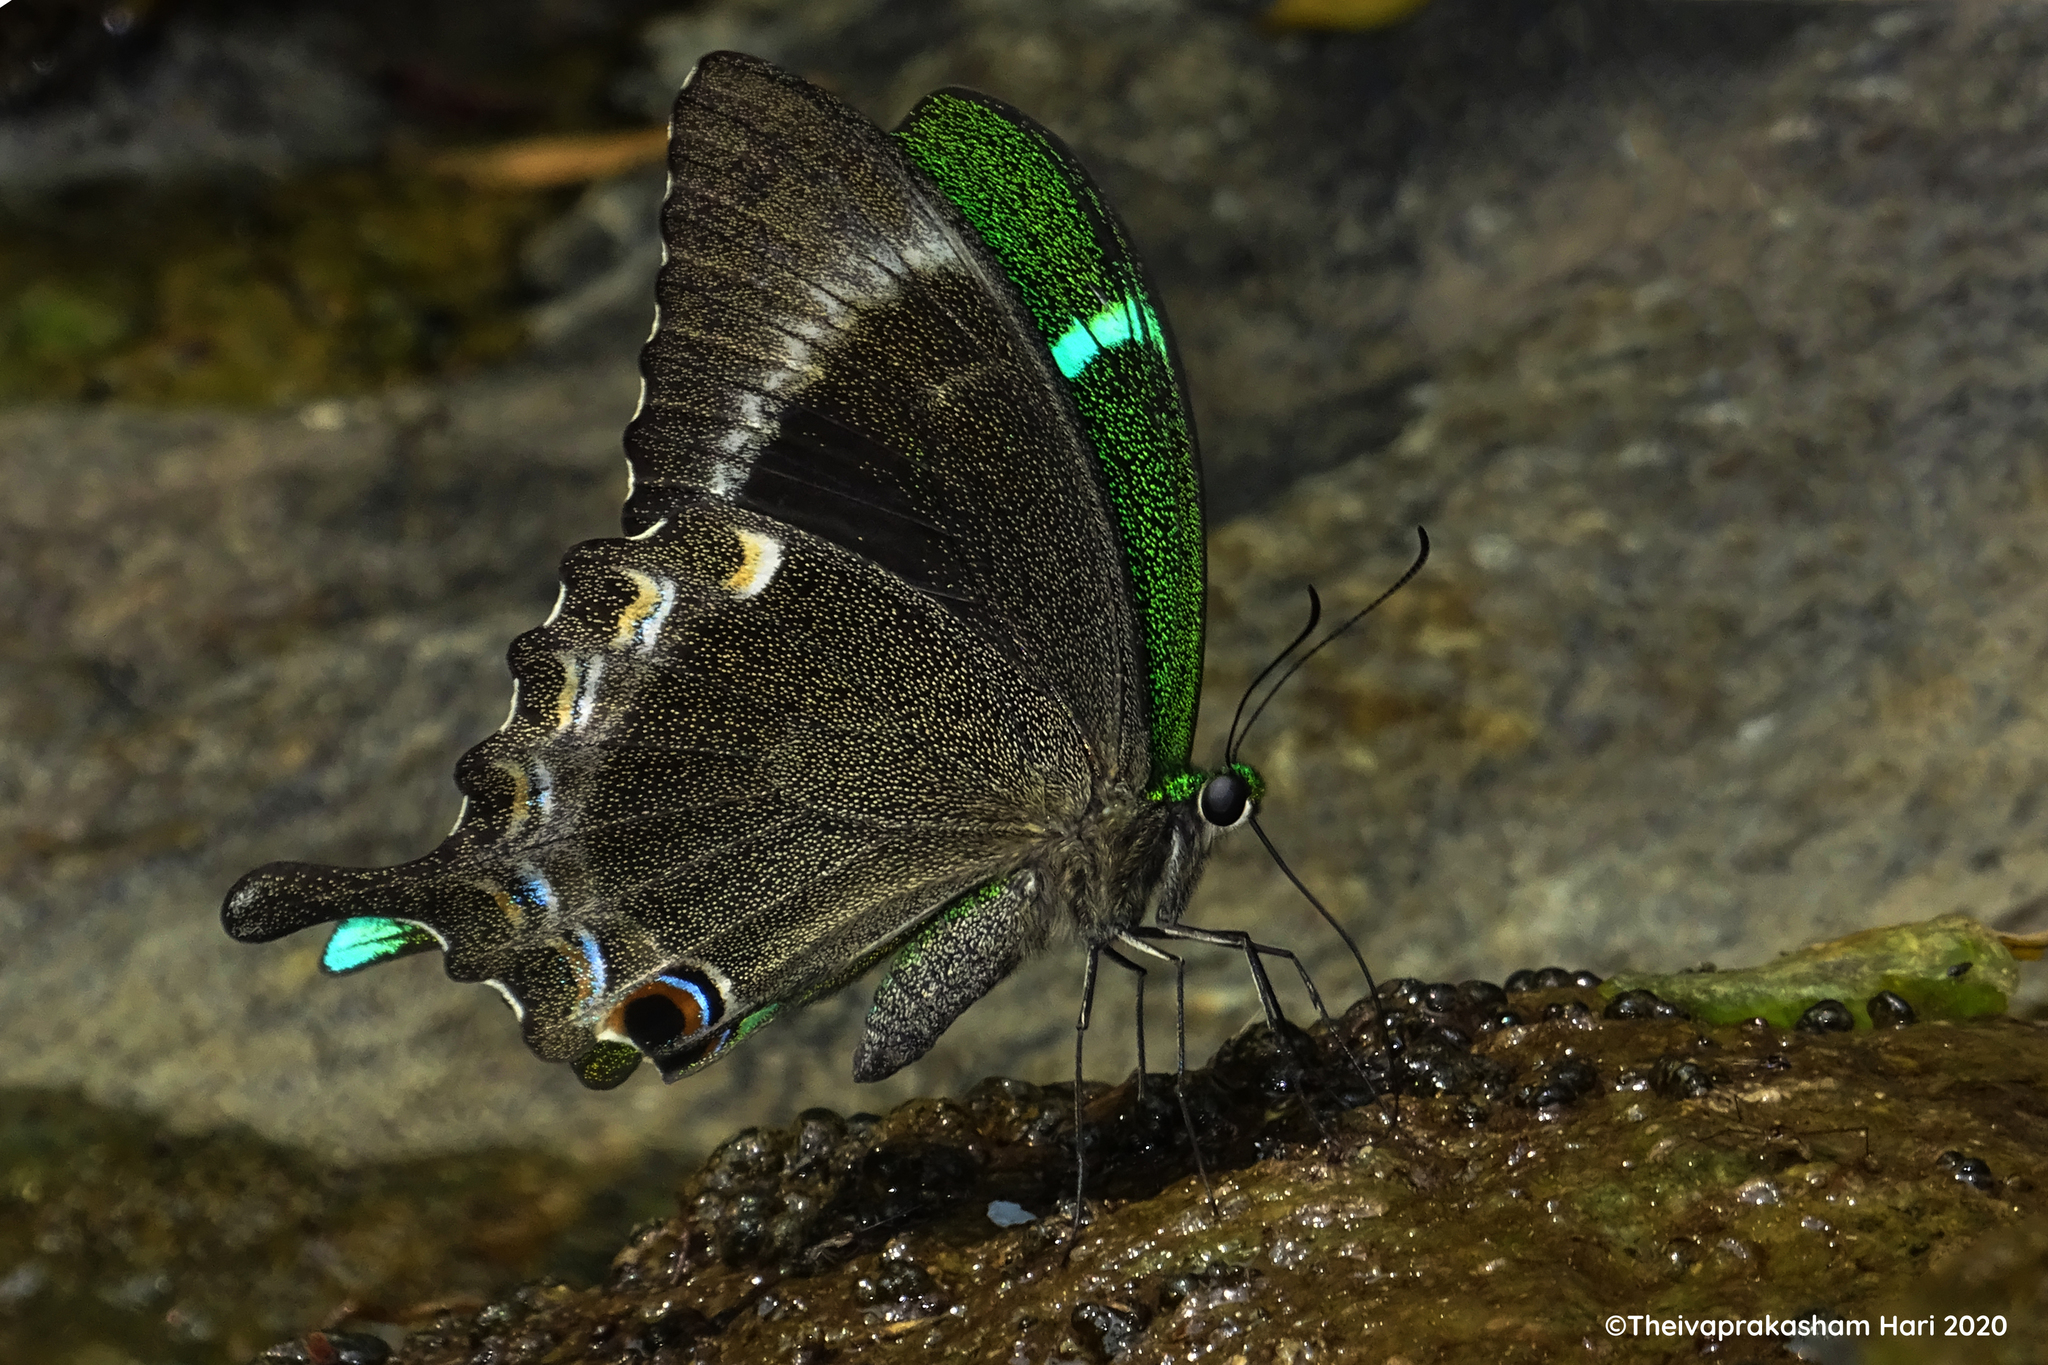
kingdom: Animalia
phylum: Arthropoda
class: Insecta
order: Lepidoptera
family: Papilionidae
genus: Papilio
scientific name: Papilio crino
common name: Common banded peacock
